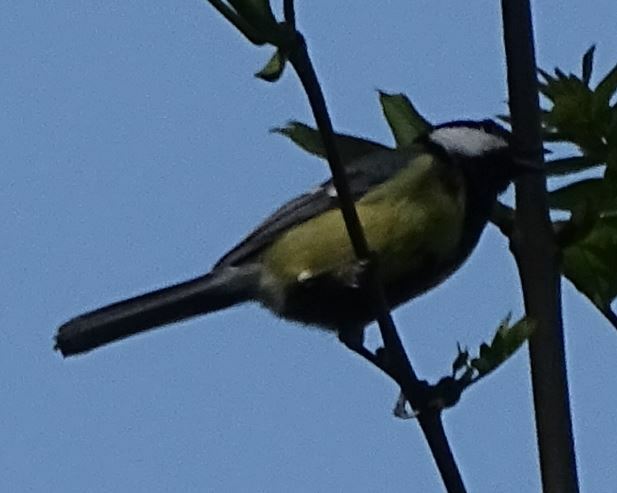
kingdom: Animalia
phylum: Chordata
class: Aves
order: Passeriformes
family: Paridae
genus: Parus
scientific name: Parus major
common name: Great tit
